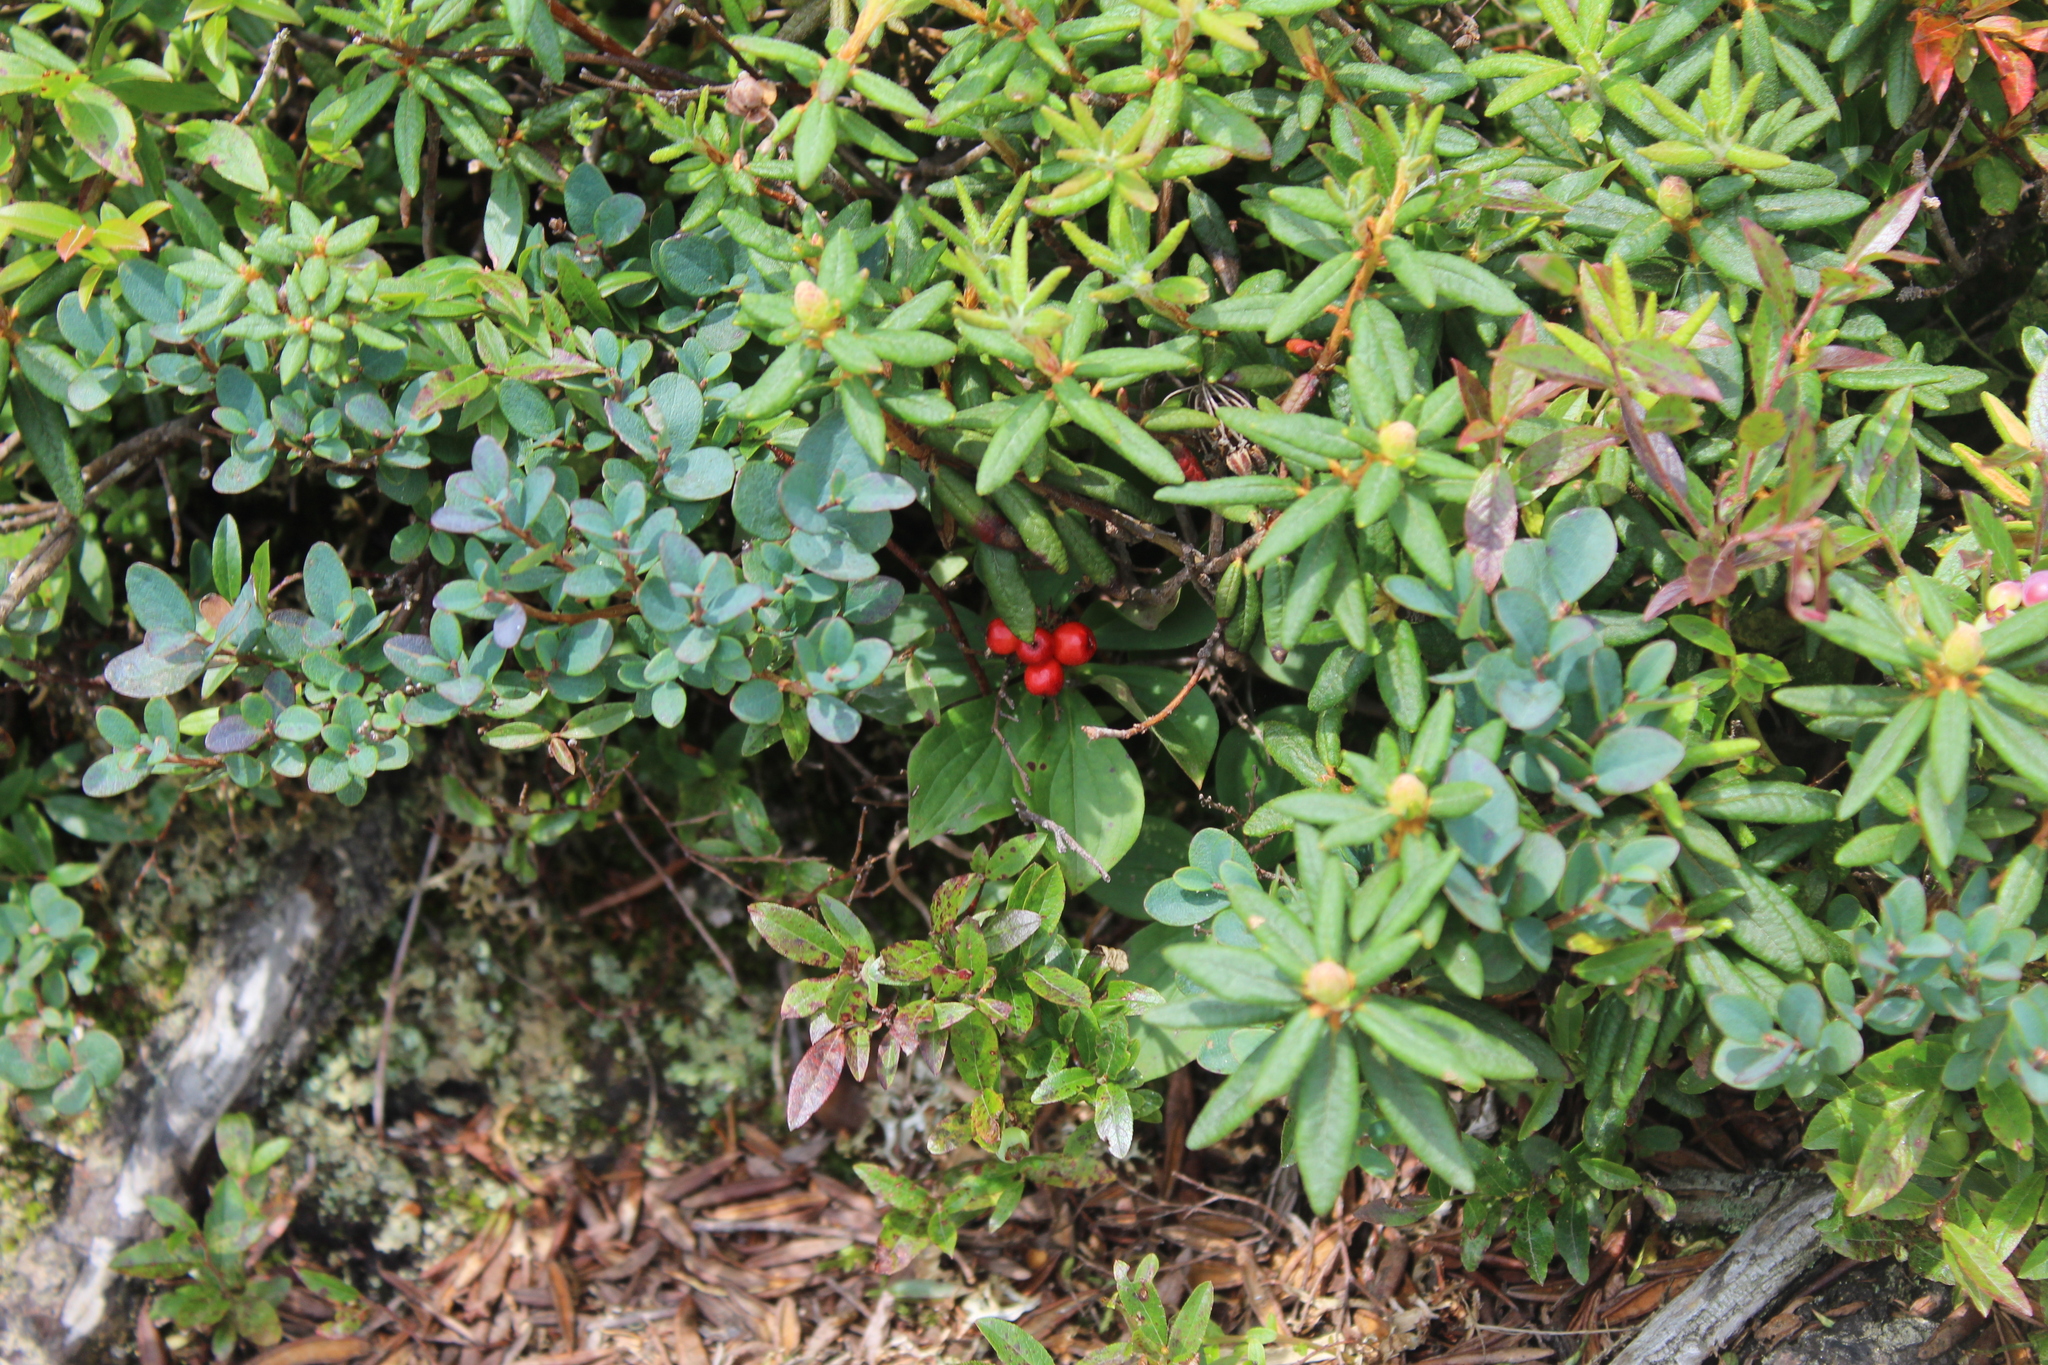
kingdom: Plantae
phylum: Tracheophyta
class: Magnoliopsida
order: Ericales
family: Ericaceae
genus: Vaccinium
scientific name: Vaccinium uliginosum
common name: Bog bilberry
